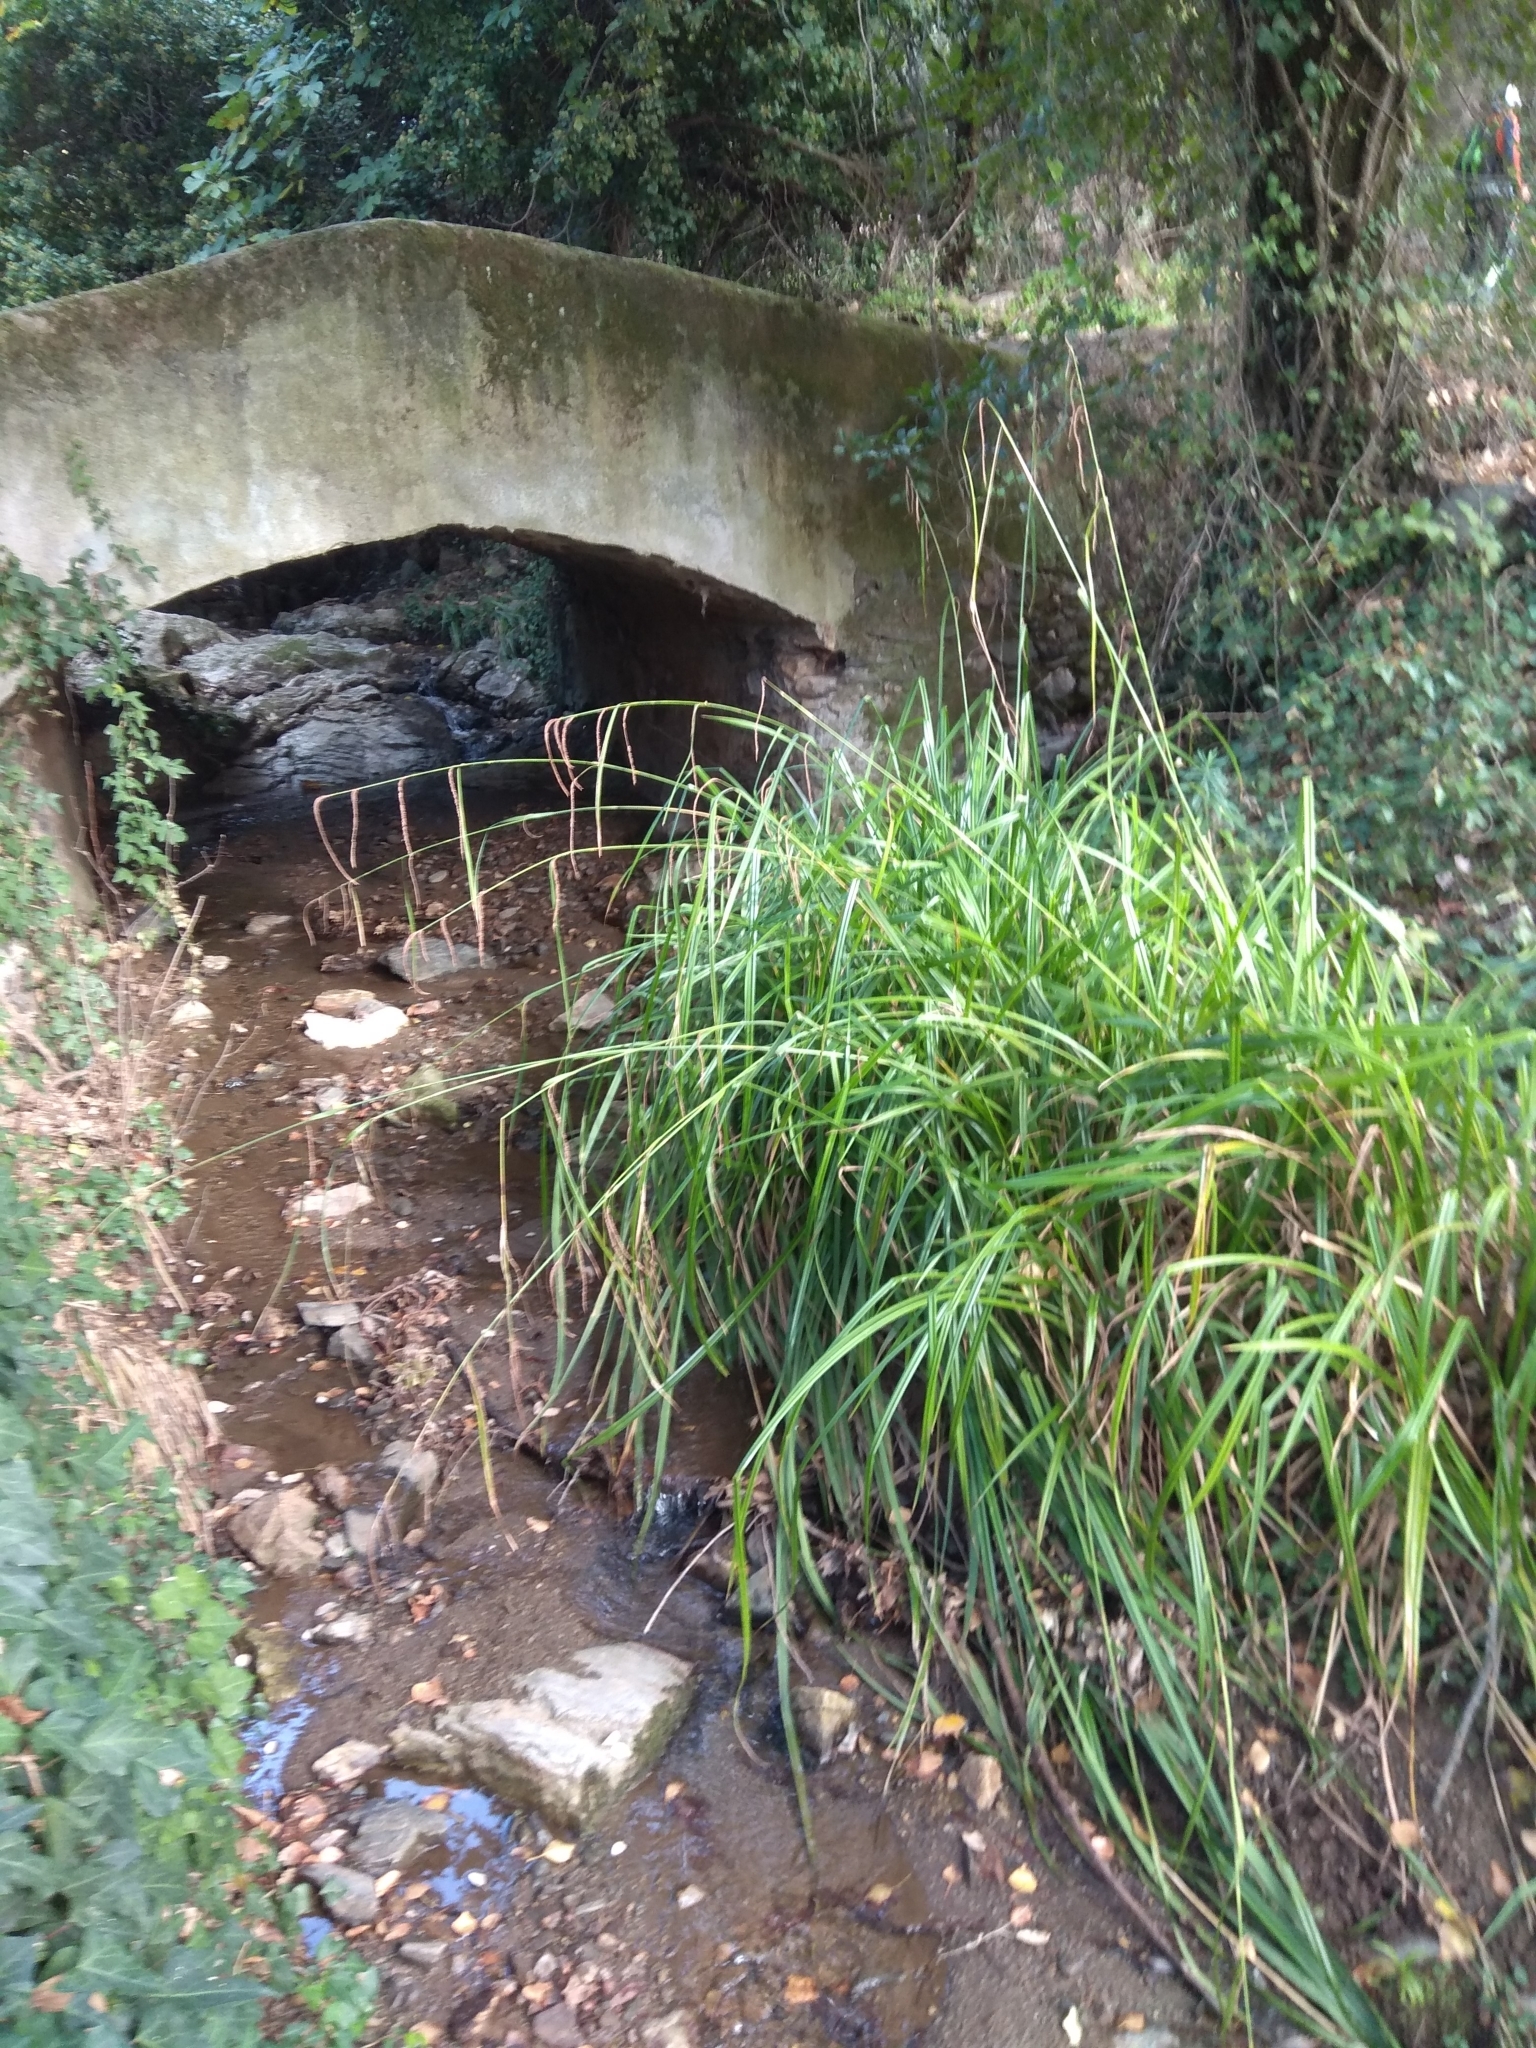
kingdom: Plantae
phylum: Tracheophyta
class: Liliopsida
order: Poales
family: Cyperaceae
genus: Carex
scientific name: Carex pendula
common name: Pendulous sedge
